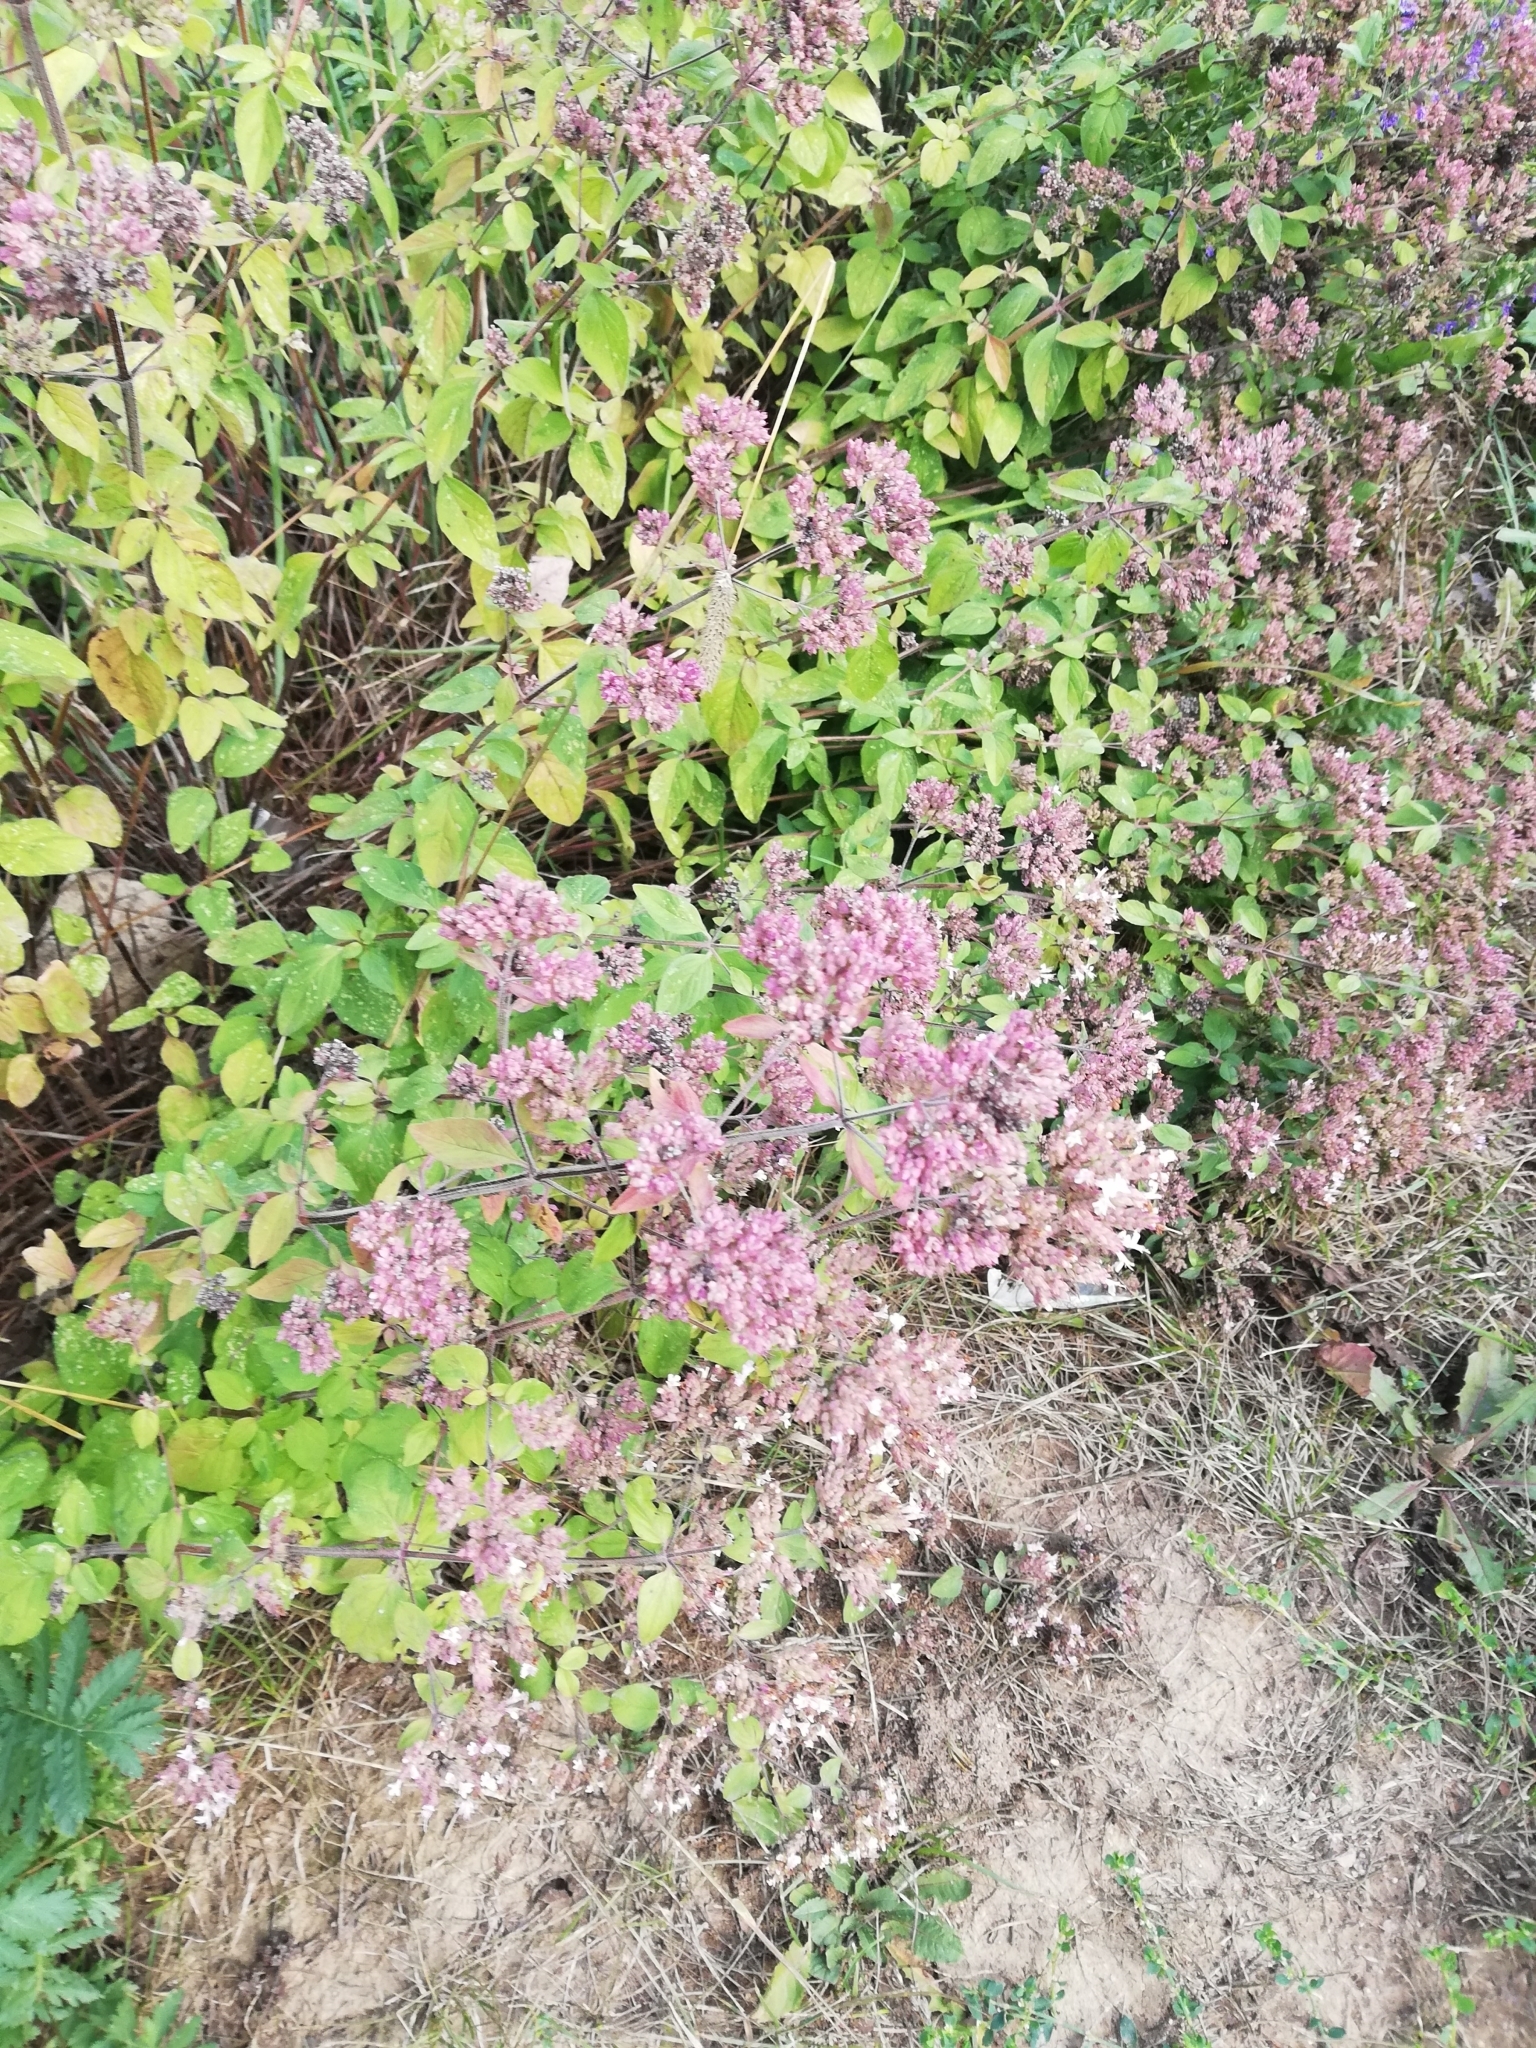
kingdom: Plantae
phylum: Tracheophyta
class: Magnoliopsida
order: Lamiales
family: Lamiaceae
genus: Origanum
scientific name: Origanum vulgare
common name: Wild marjoram
